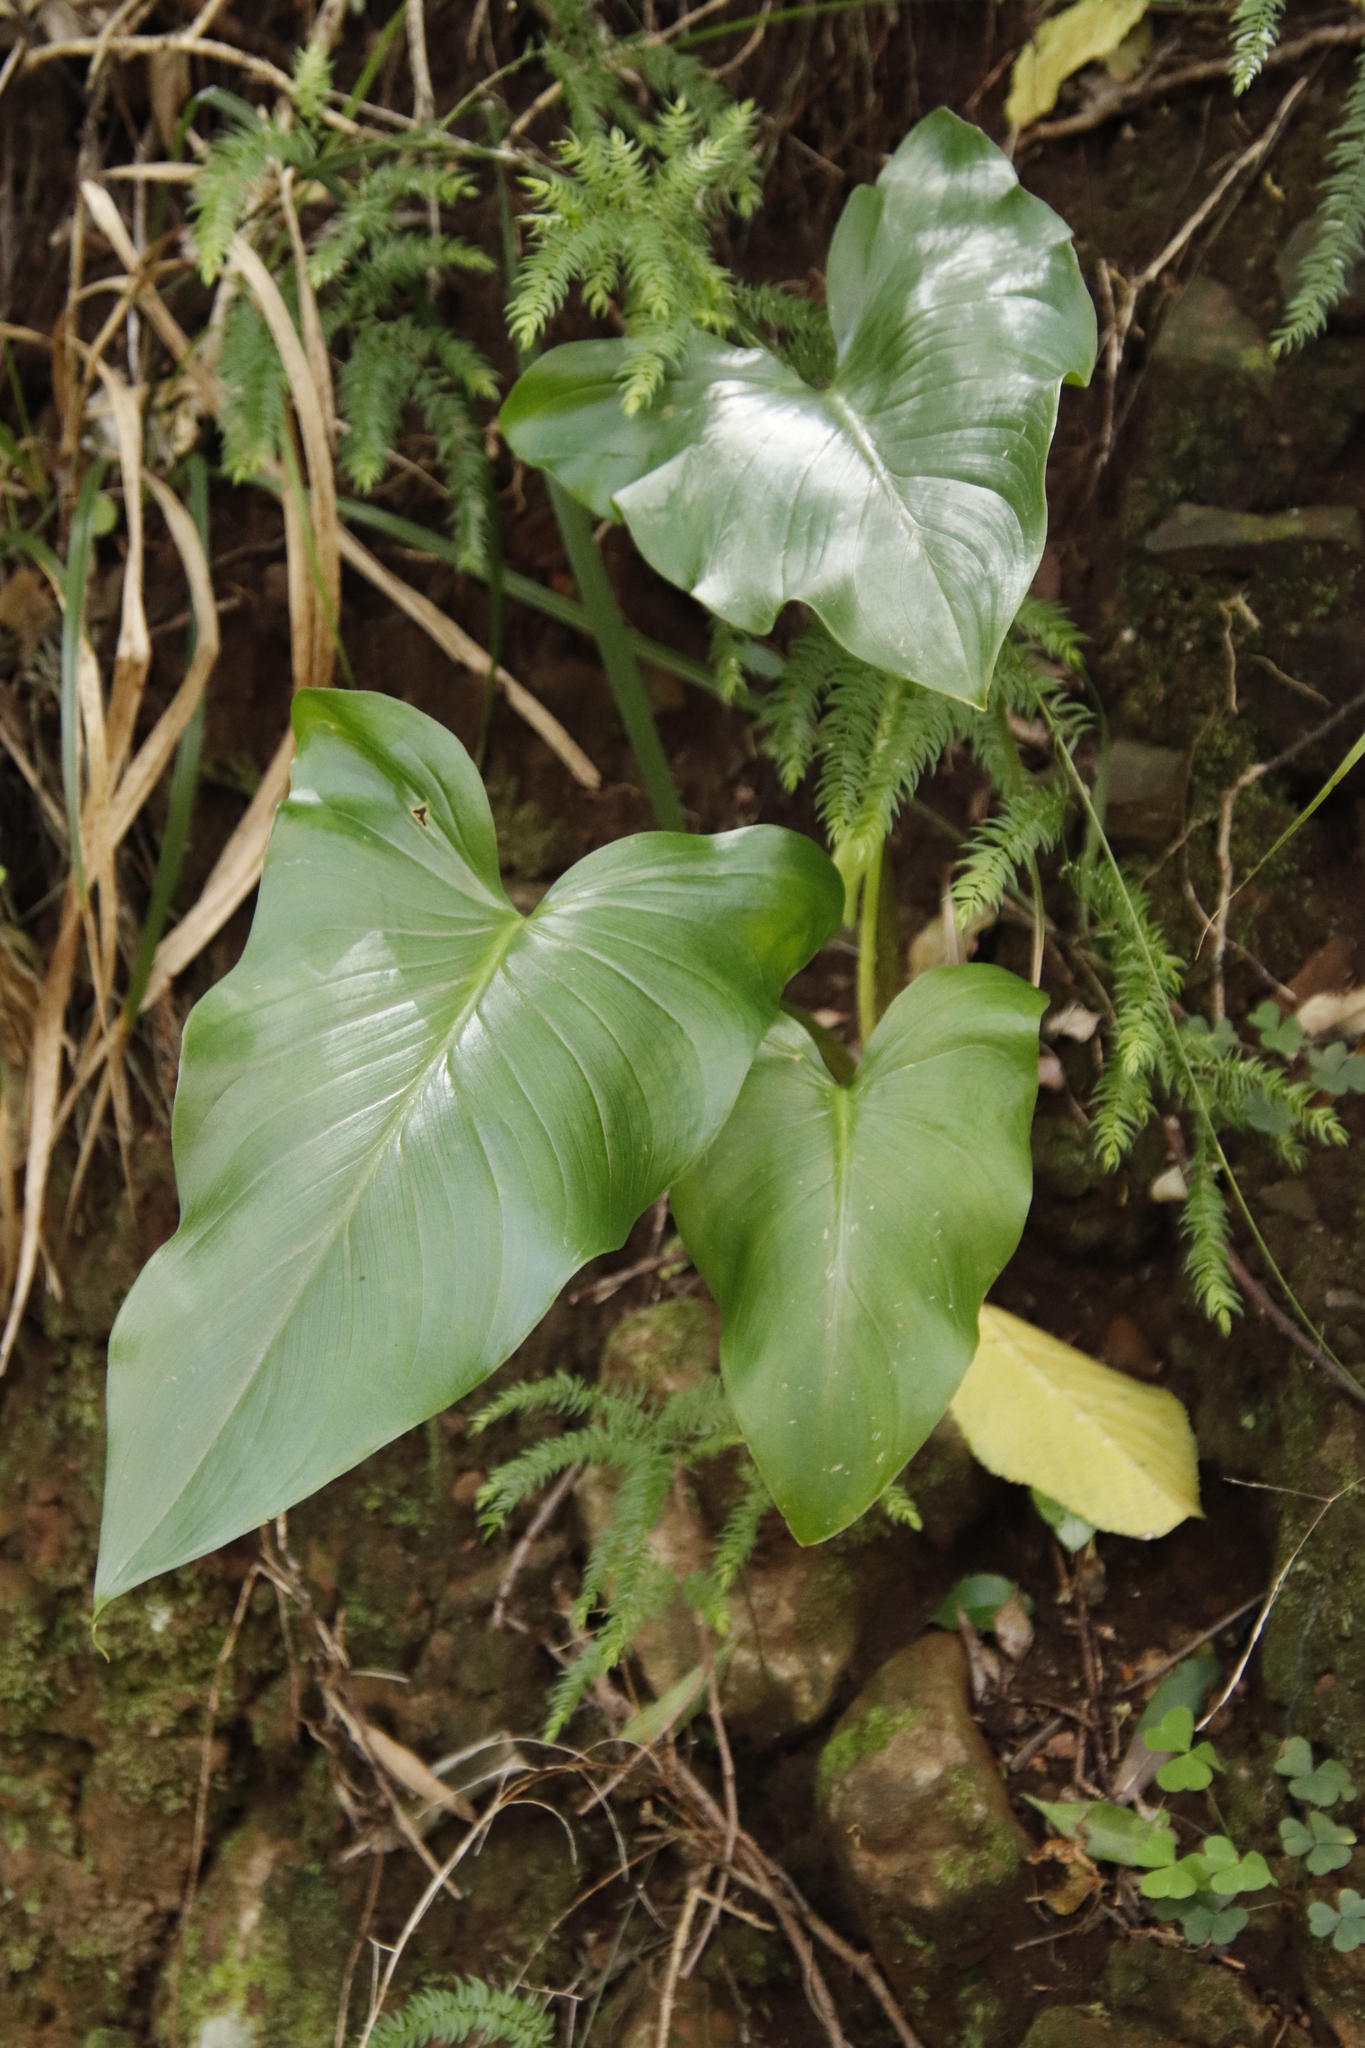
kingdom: Plantae
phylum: Tracheophyta
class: Liliopsida
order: Alismatales
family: Araceae
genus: Zantedeschia
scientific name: Zantedeschia aethiopica
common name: Altar-lily
